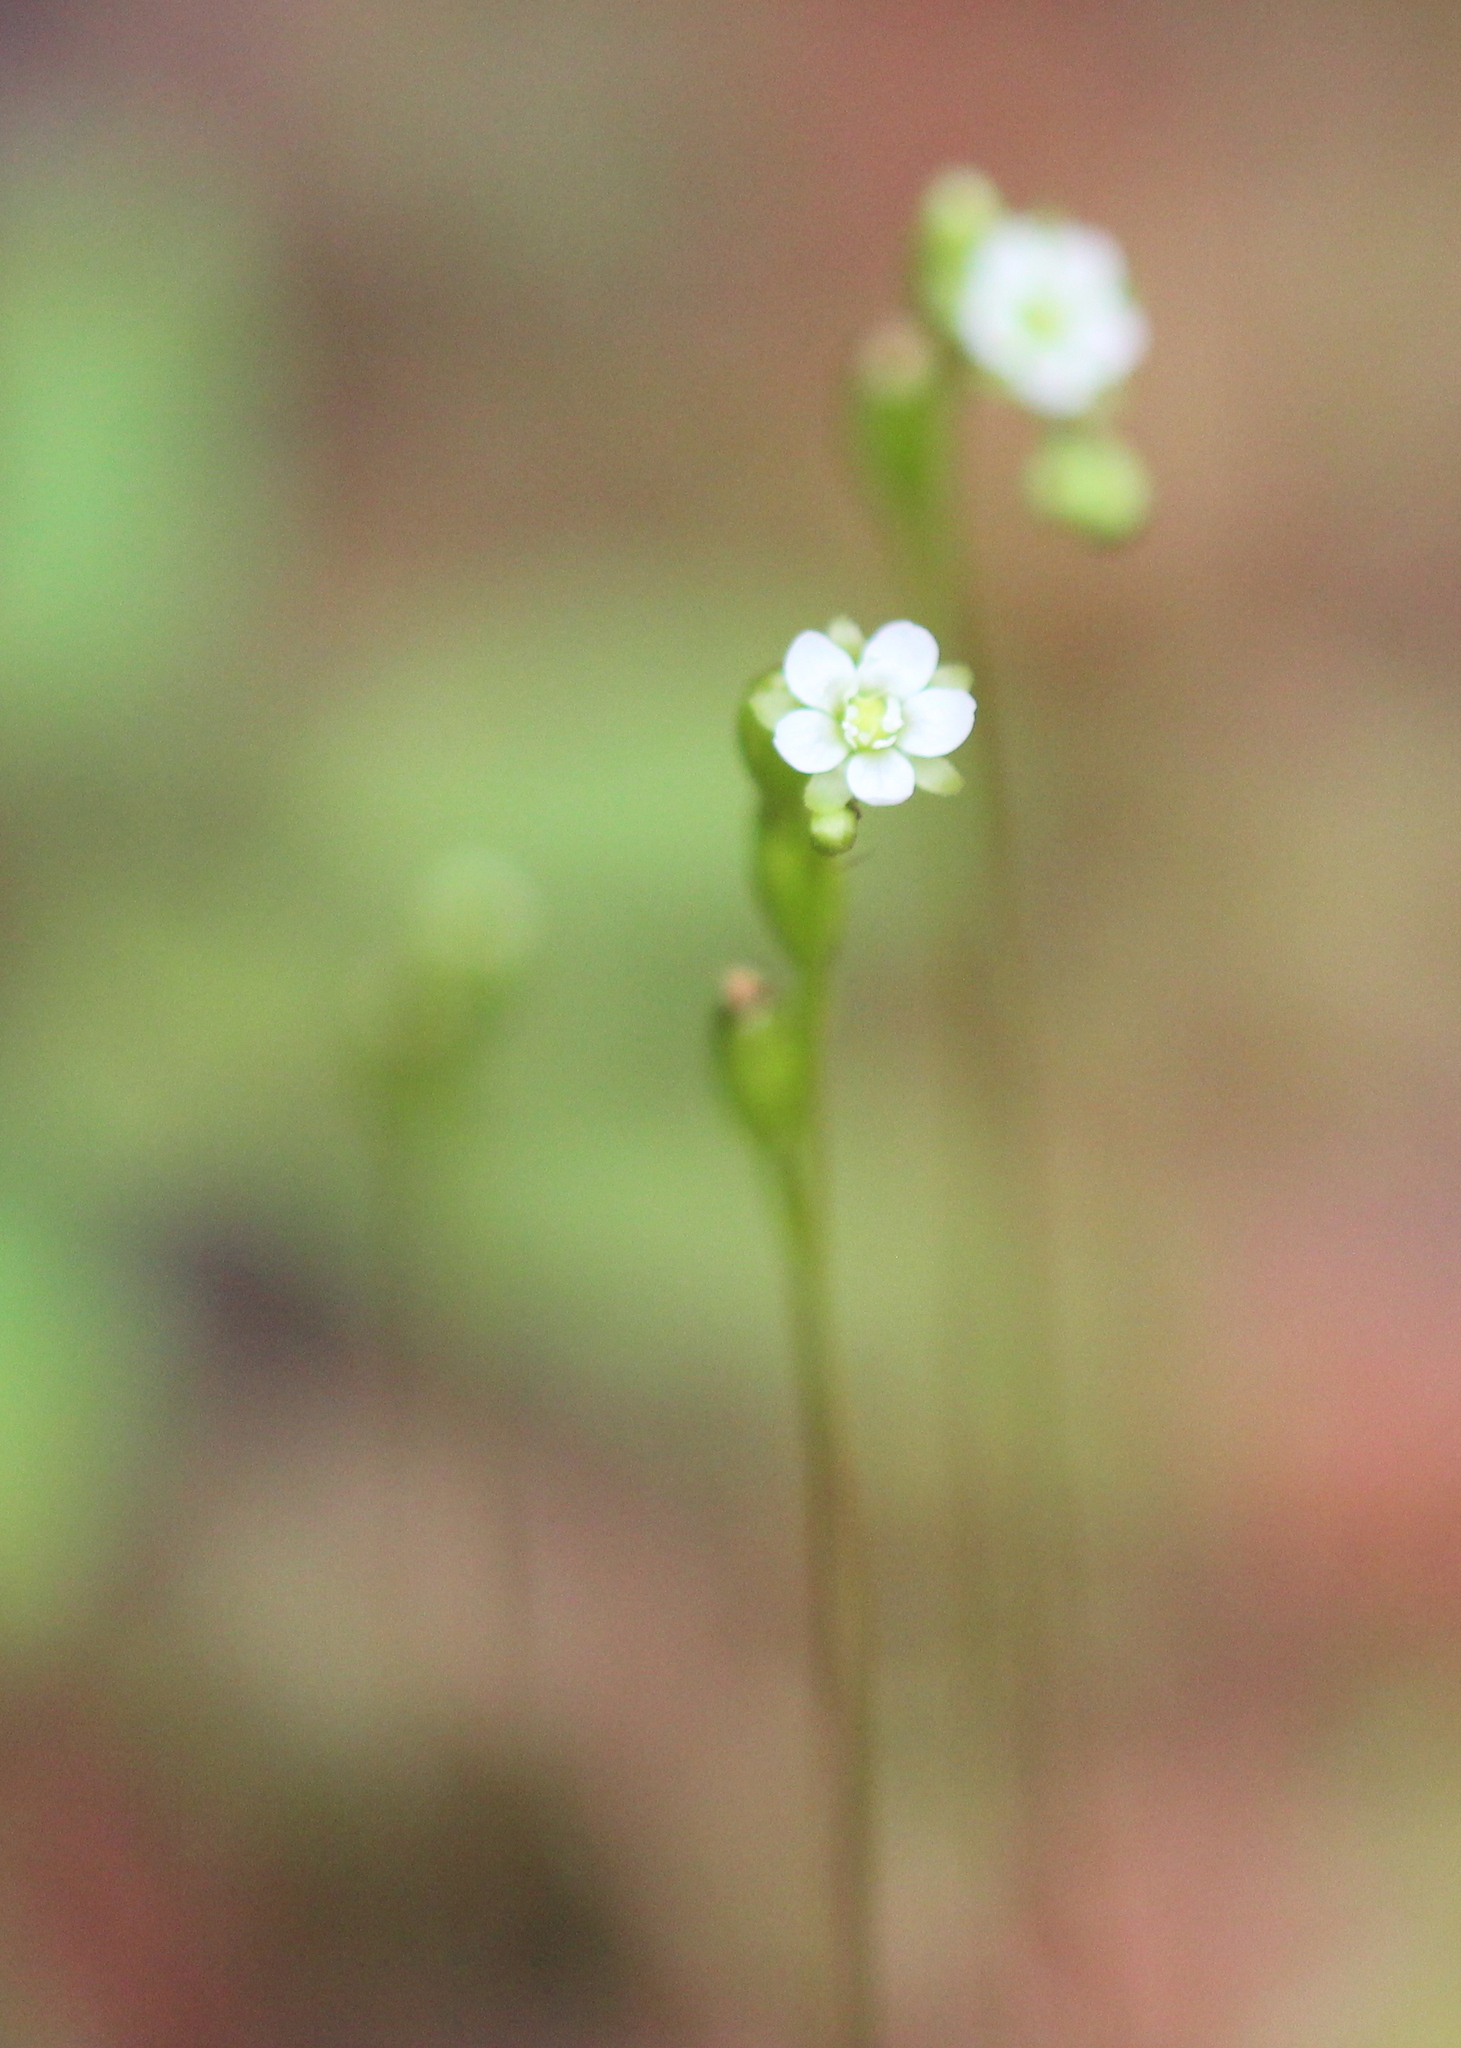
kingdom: Plantae
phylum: Tracheophyta
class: Magnoliopsida
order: Caryophyllales
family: Droseraceae
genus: Drosera
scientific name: Drosera rotundifolia
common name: Round-leaved sundew
